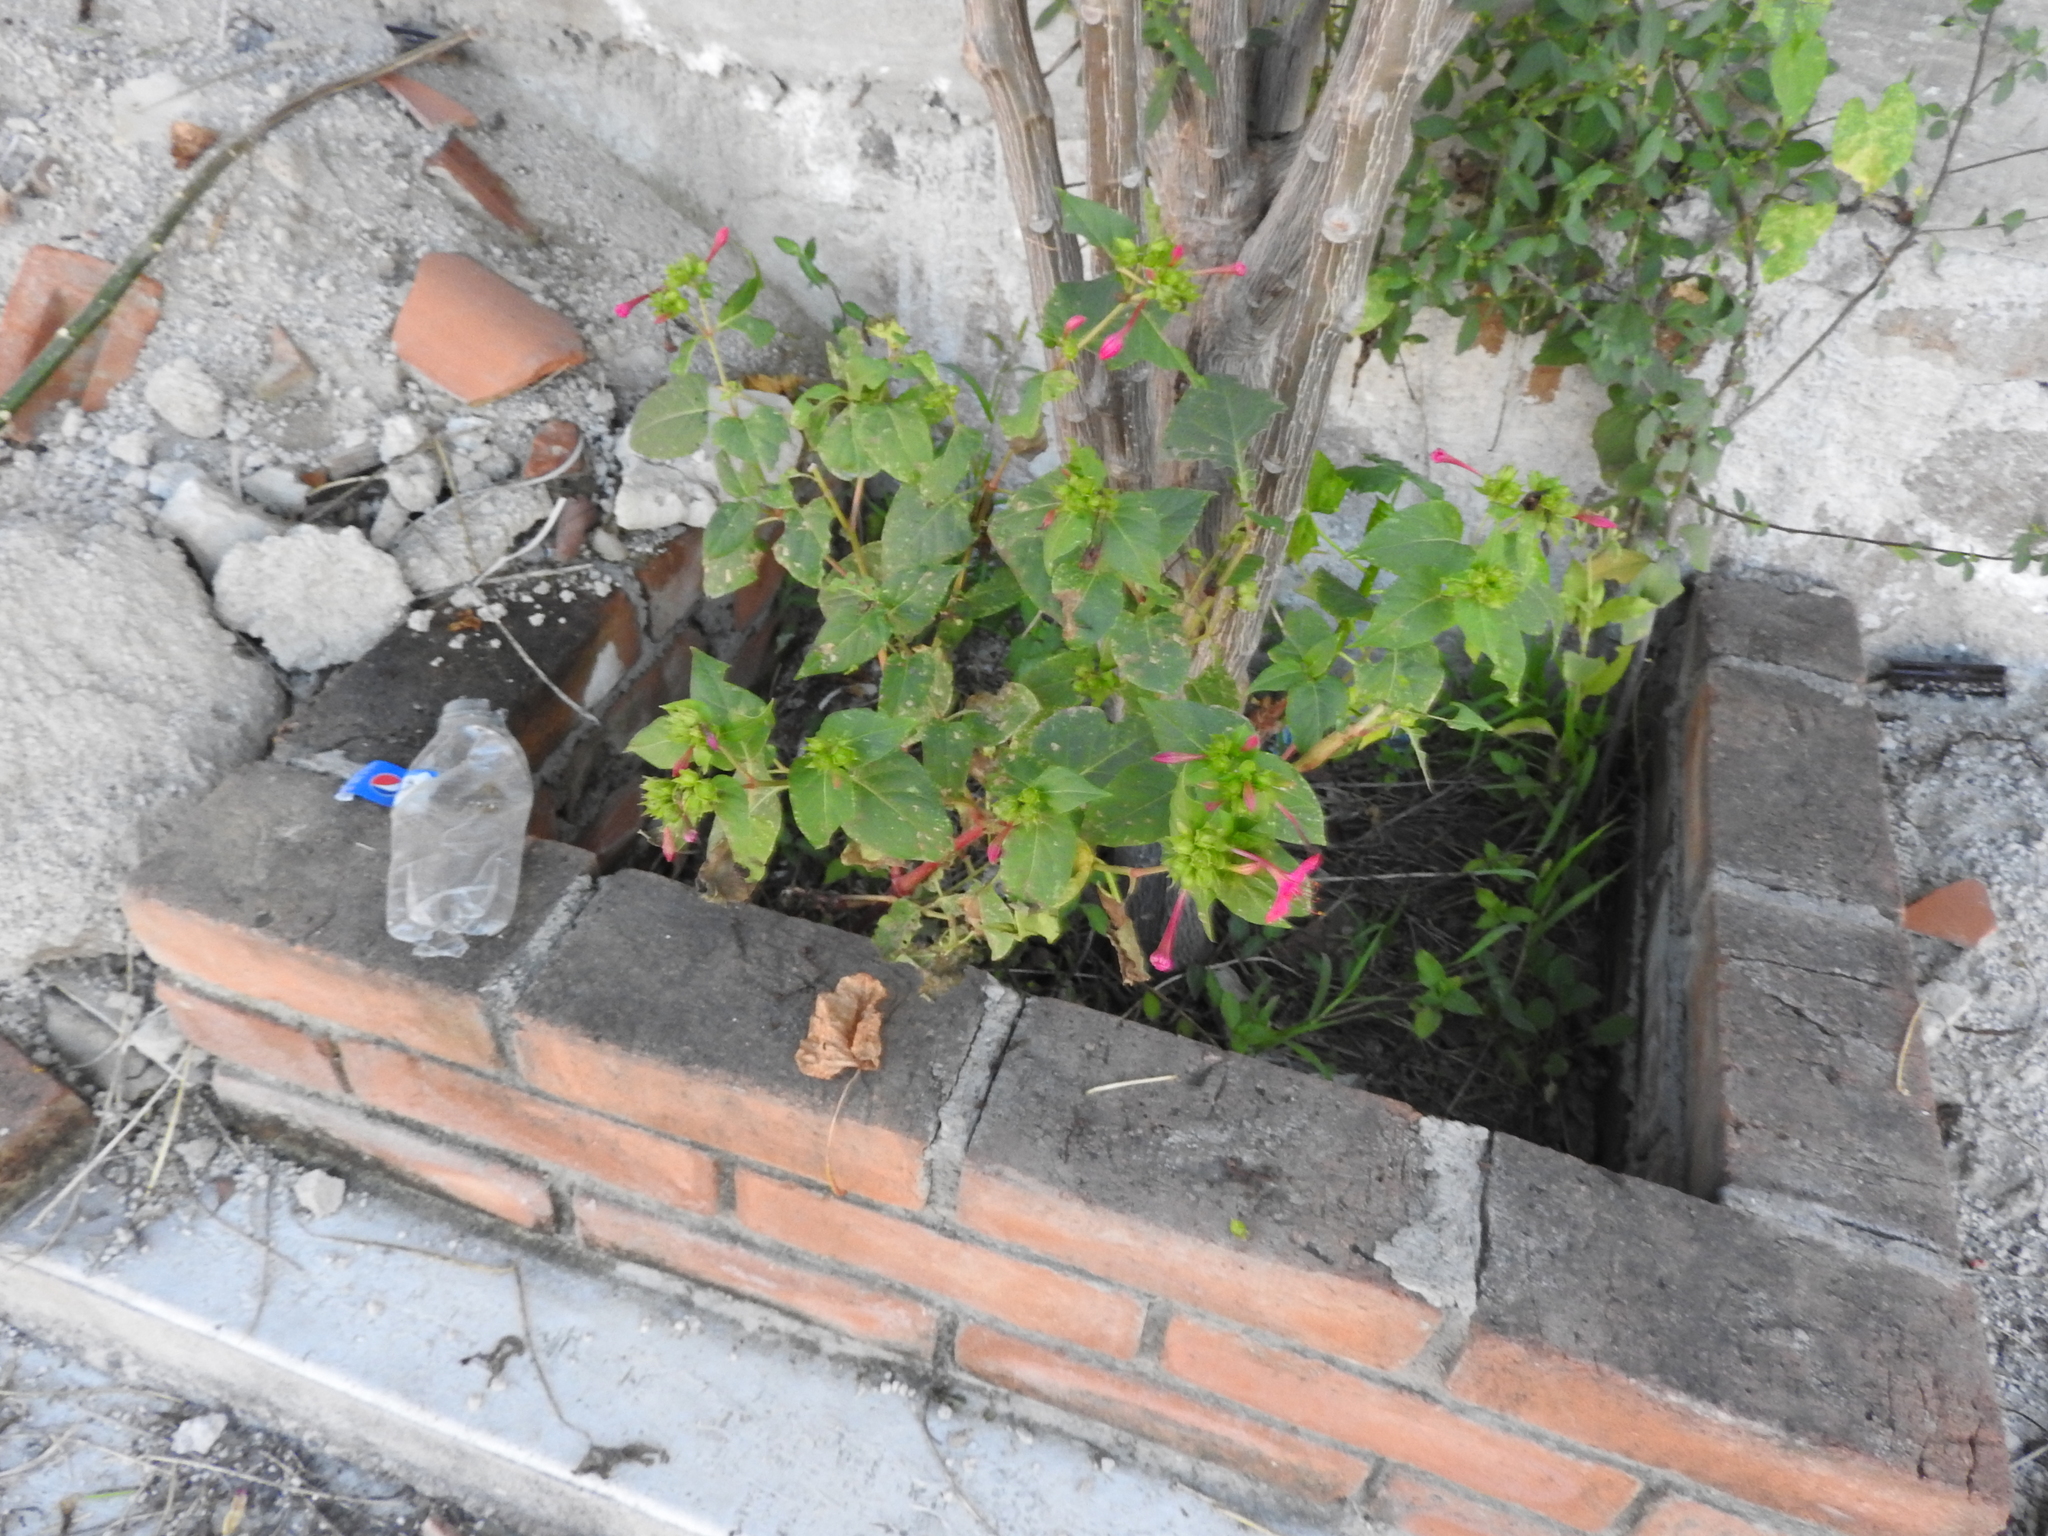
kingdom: Plantae
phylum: Tracheophyta
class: Magnoliopsida
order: Caryophyllales
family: Nyctaginaceae
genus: Mirabilis
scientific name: Mirabilis jalapa
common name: Marvel-of-peru
